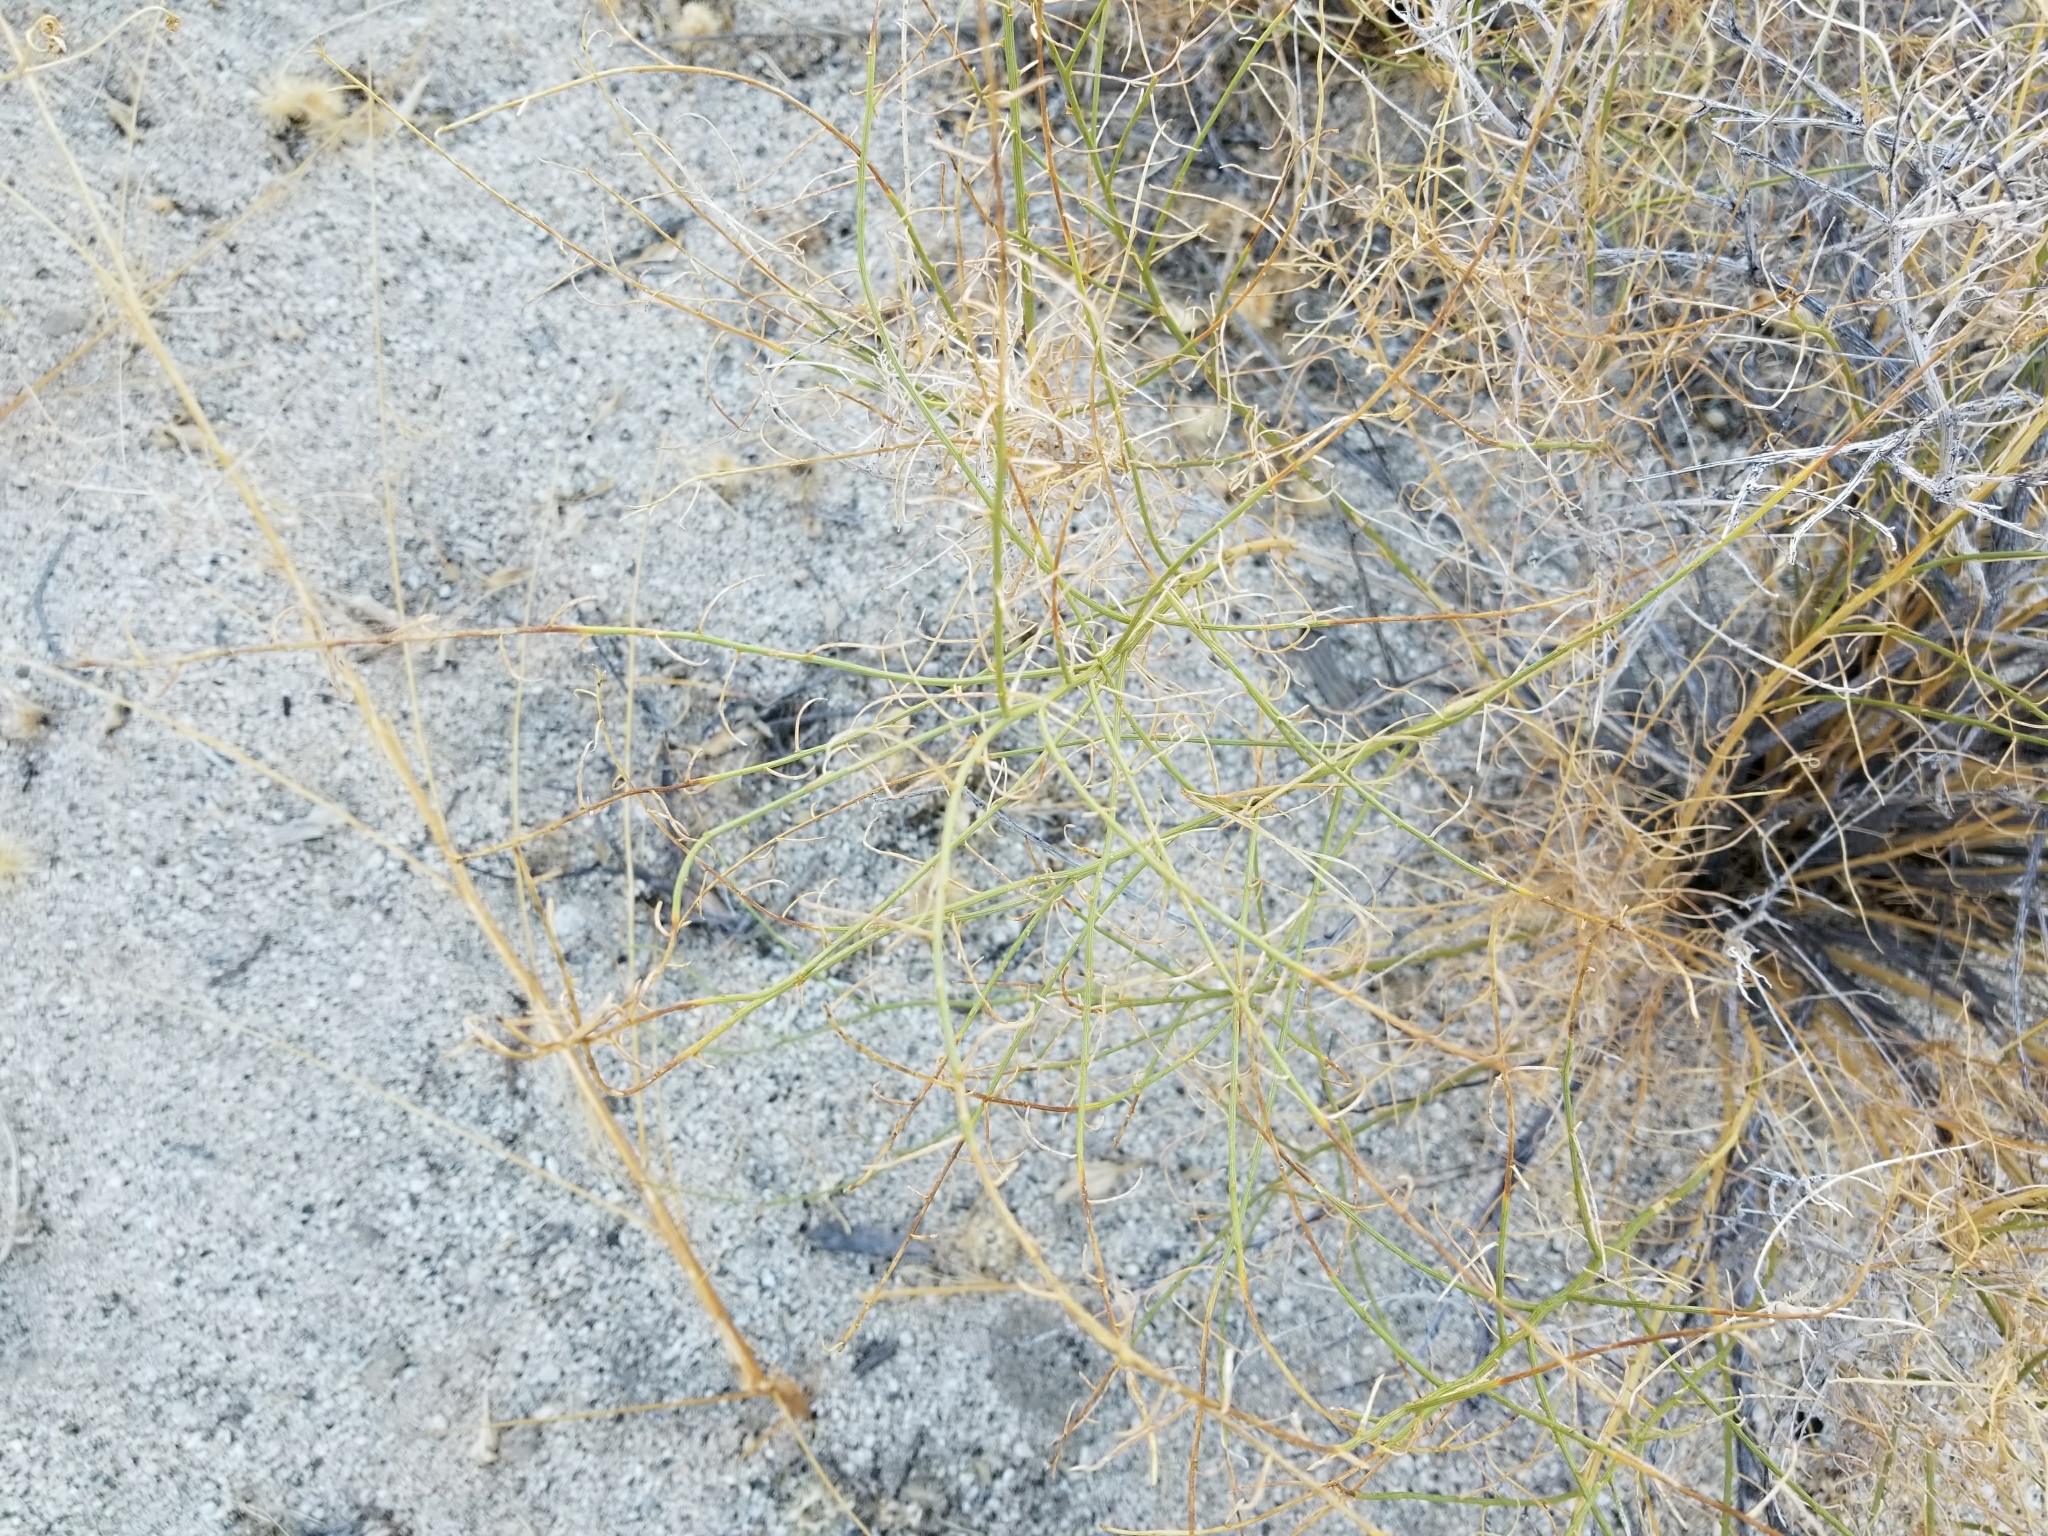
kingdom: Plantae
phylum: Tracheophyta
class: Magnoliopsida
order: Asterales
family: Asteraceae
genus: Ambrosia
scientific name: Ambrosia salsola
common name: Burrobrush
